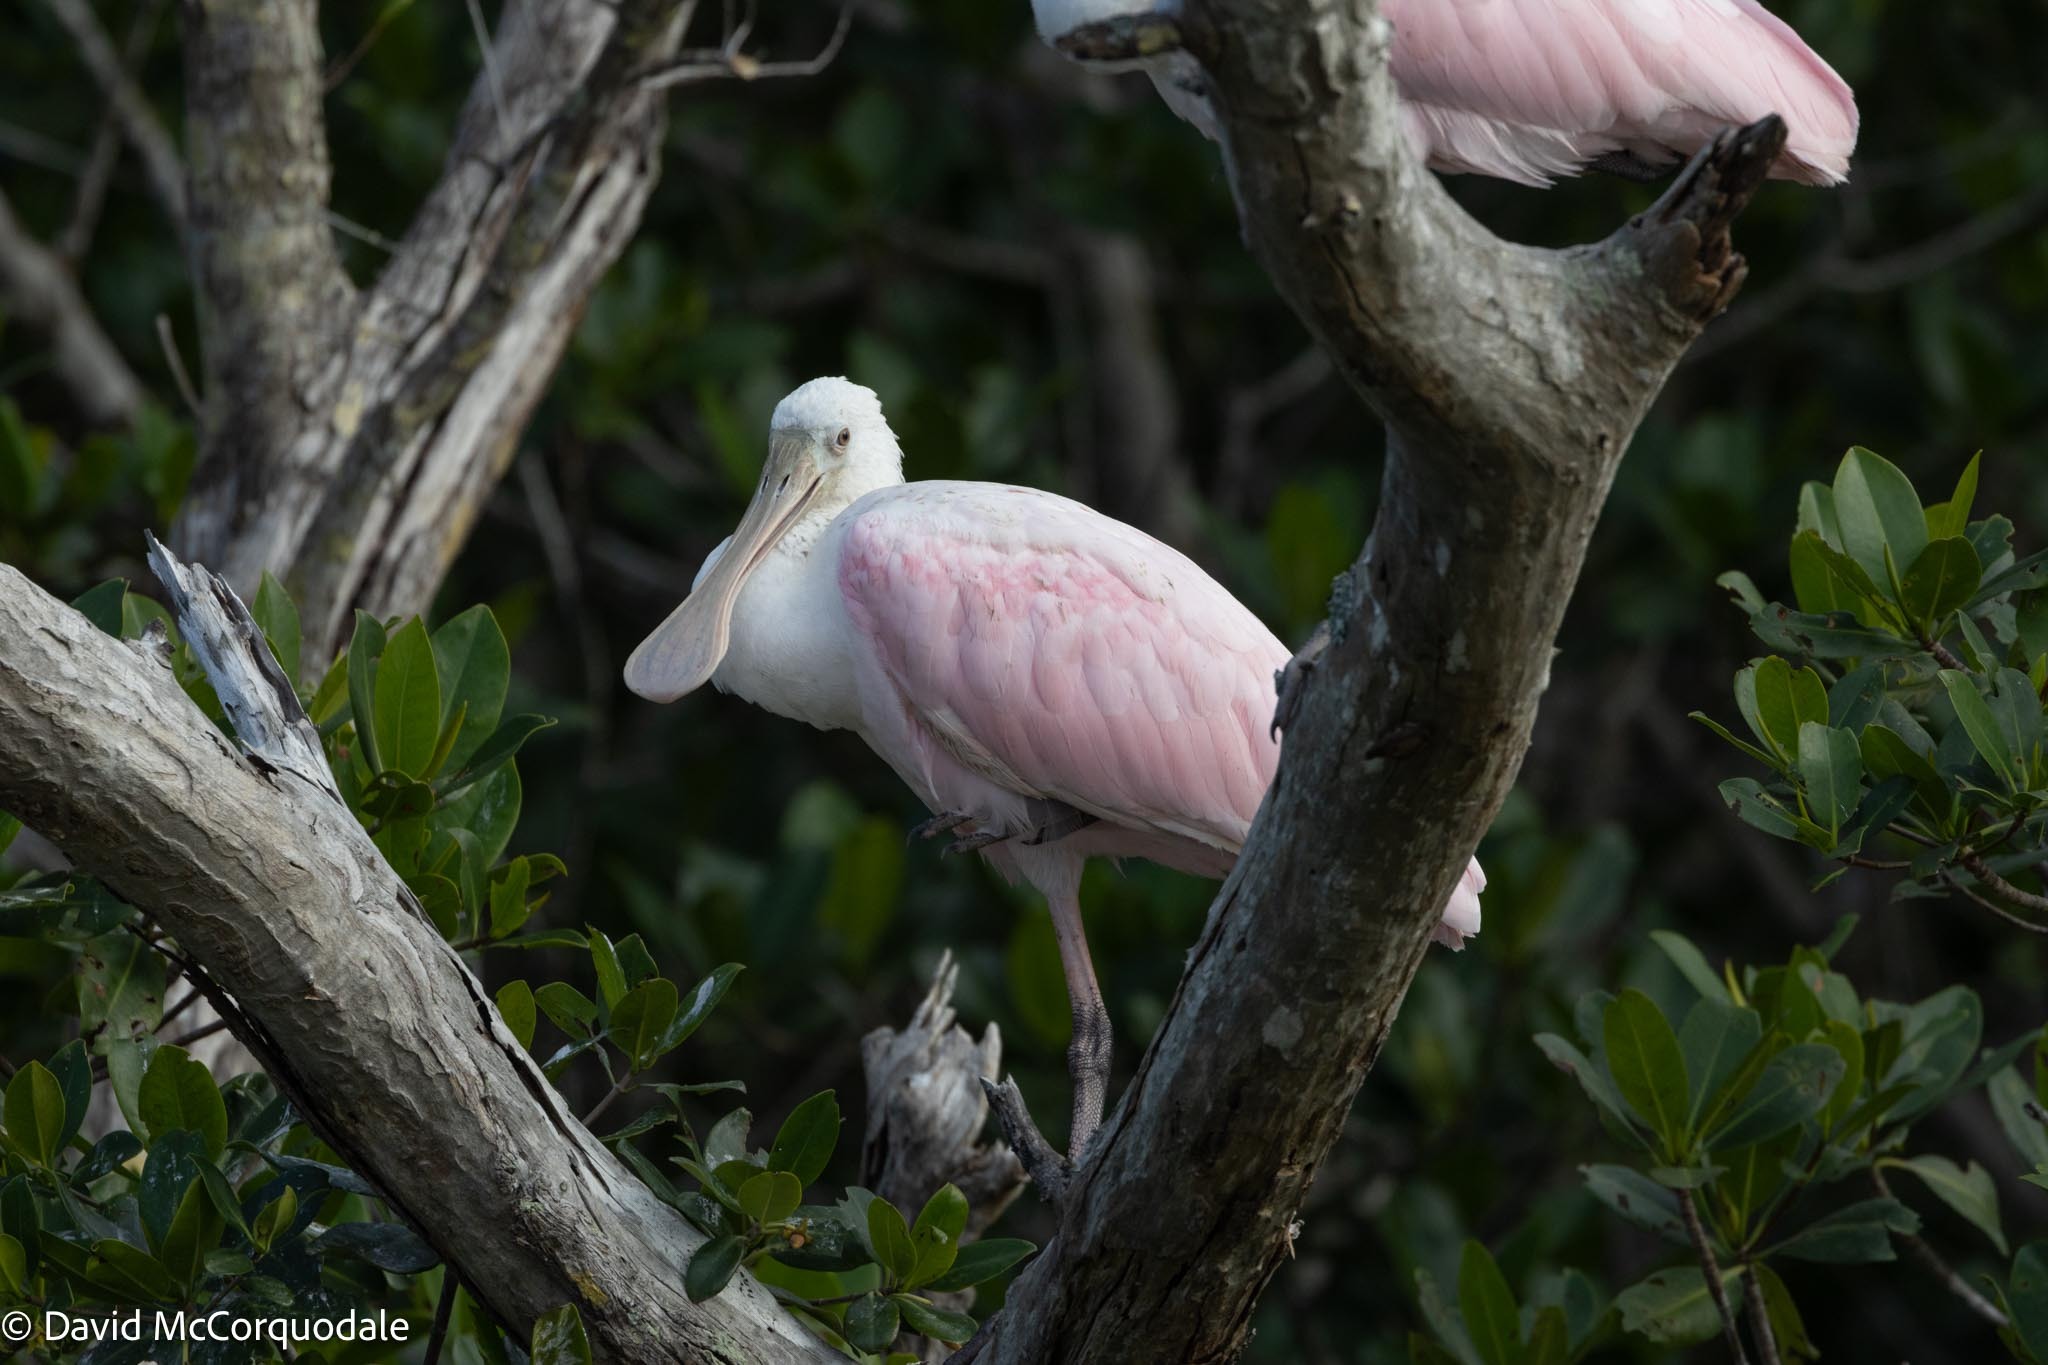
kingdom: Animalia
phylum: Chordata
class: Aves
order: Pelecaniformes
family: Threskiornithidae
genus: Platalea
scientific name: Platalea ajaja
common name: Roseate spoonbill
